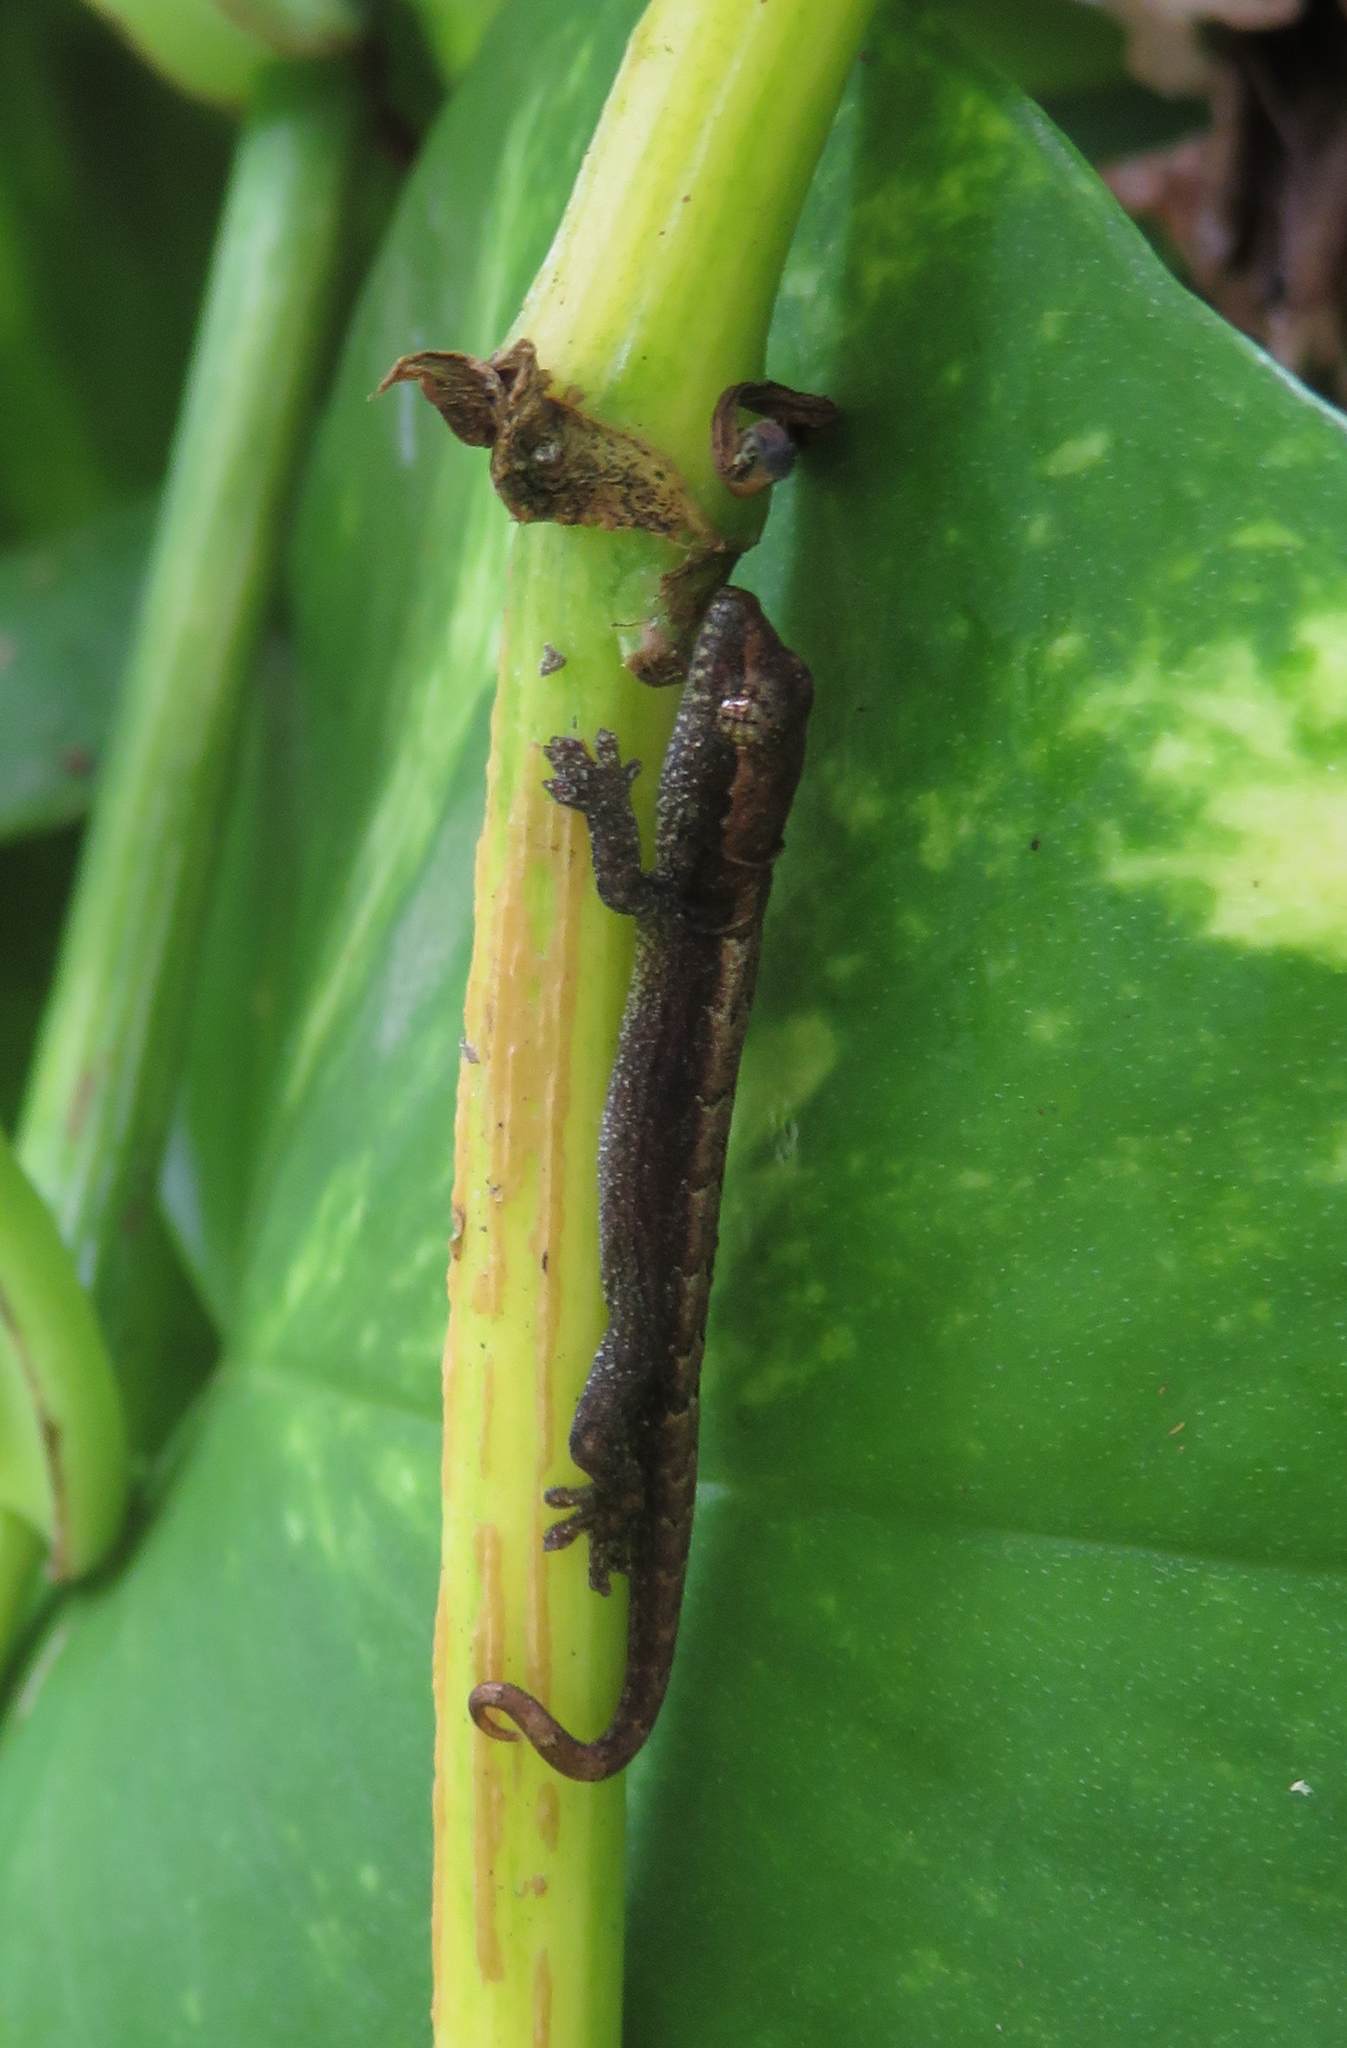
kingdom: Animalia
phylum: Chordata
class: Squamata
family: Gekkonidae
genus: Lepidodactylus
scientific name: Lepidodactylus lugubris
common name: Mourning gecko
